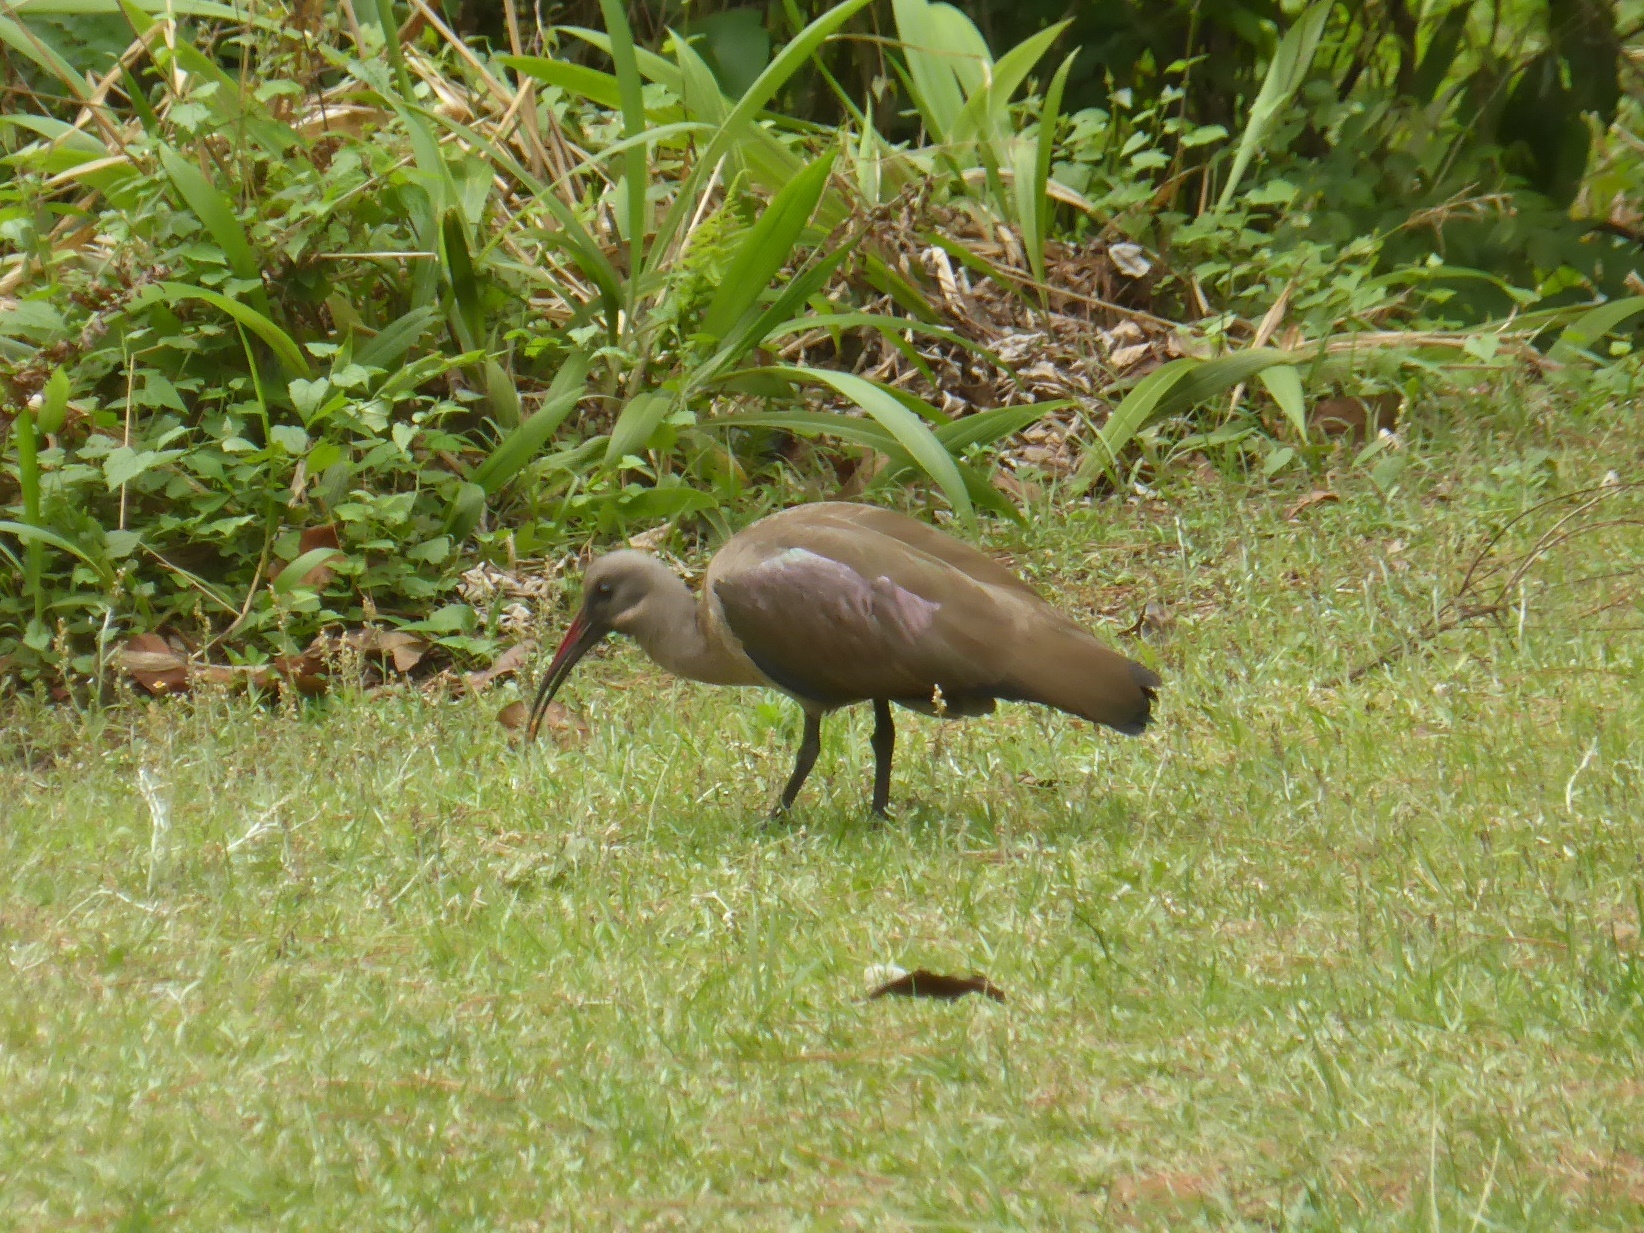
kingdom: Animalia
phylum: Chordata
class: Aves
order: Pelecaniformes
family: Threskiornithidae
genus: Bostrychia
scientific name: Bostrychia hagedash
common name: Hadada ibis
